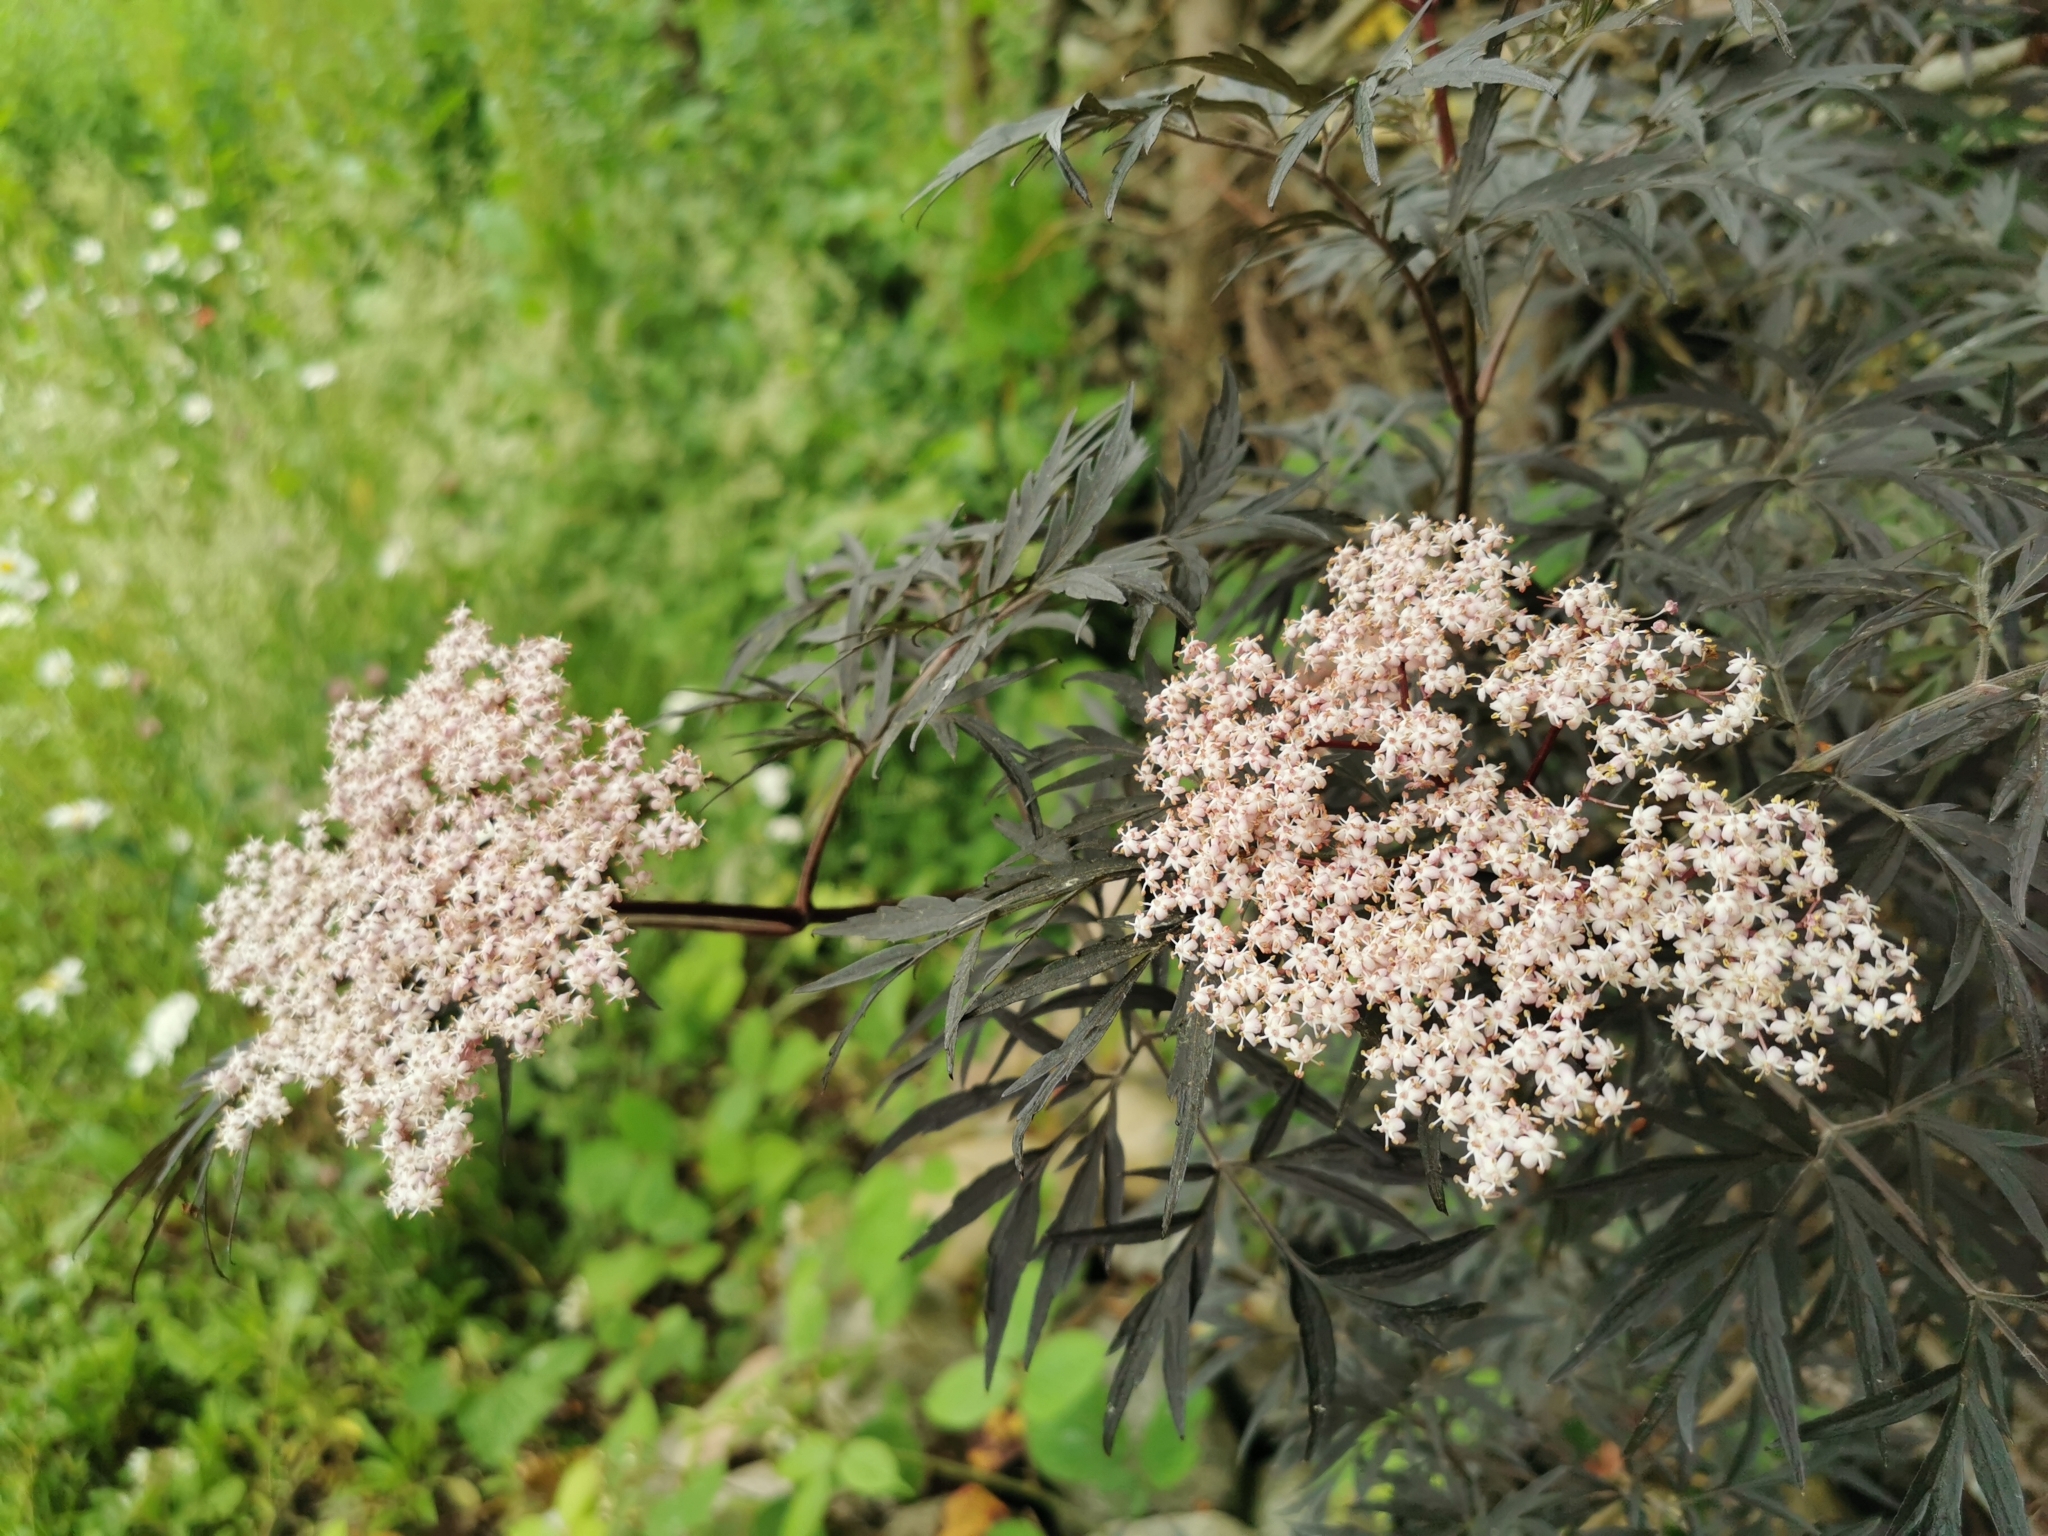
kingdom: Plantae
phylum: Tracheophyta
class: Magnoliopsida
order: Dipsacales
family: Viburnaceae
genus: Sambucus
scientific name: Sambucus nigra
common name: Elder
